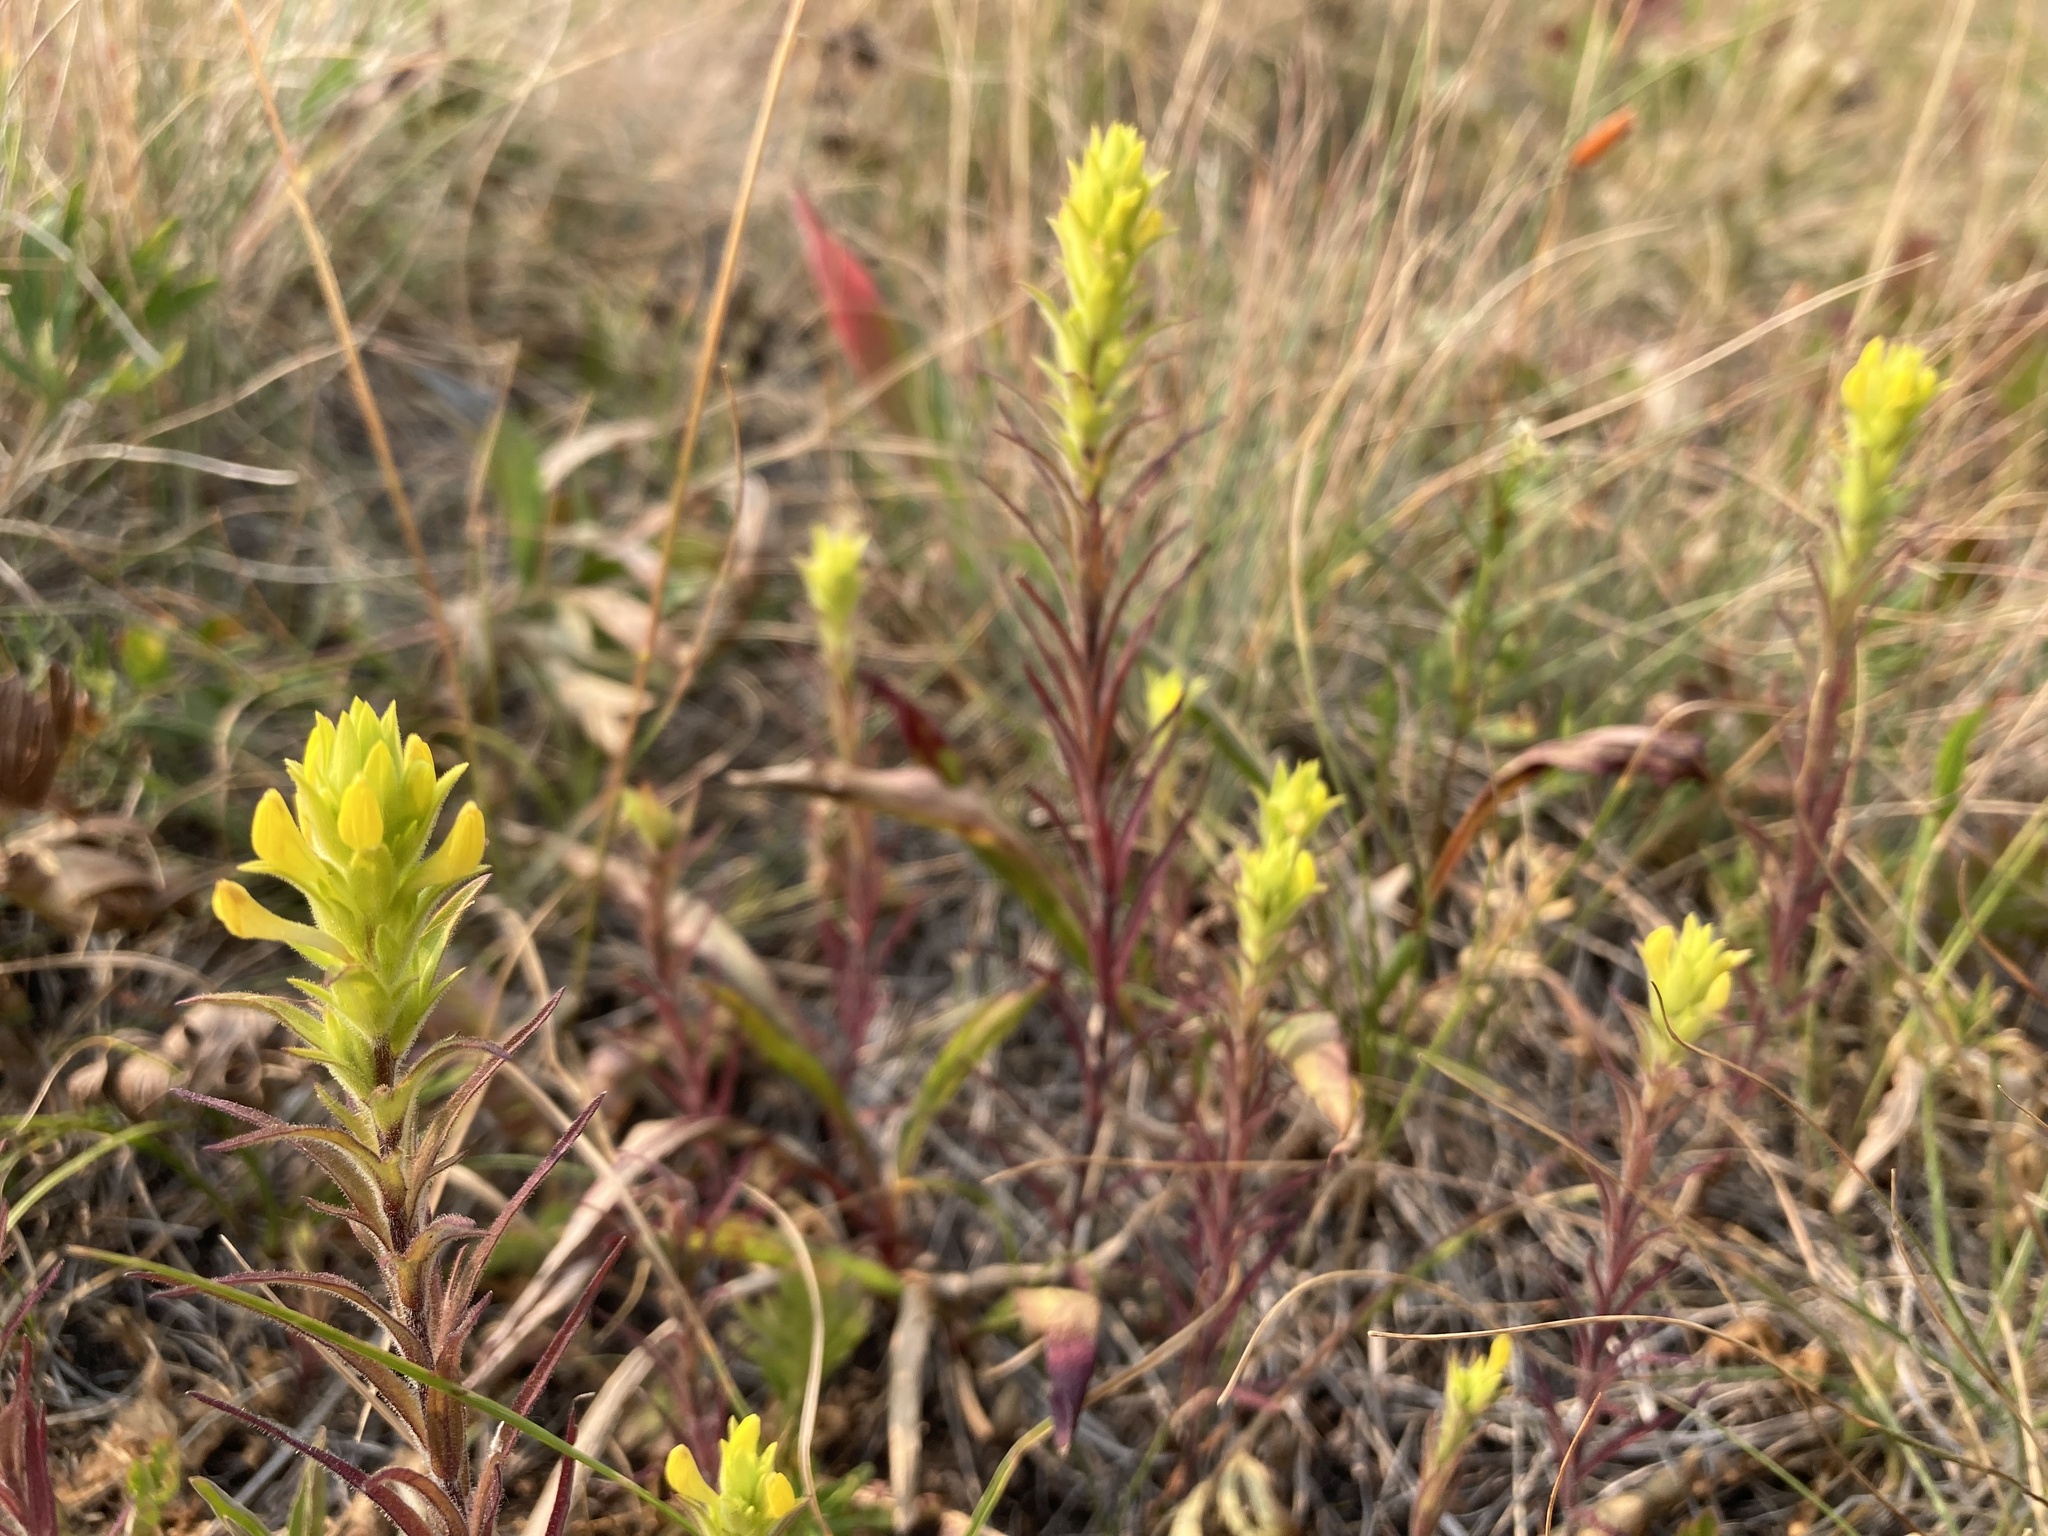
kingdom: Plantae
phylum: Tracheophyta
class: Magnoliopsida
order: Lamiales
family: Orobanchaceae
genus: Orthocarpus
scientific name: Orthocarpus luteus
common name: Golden-tongue owl's-clover
